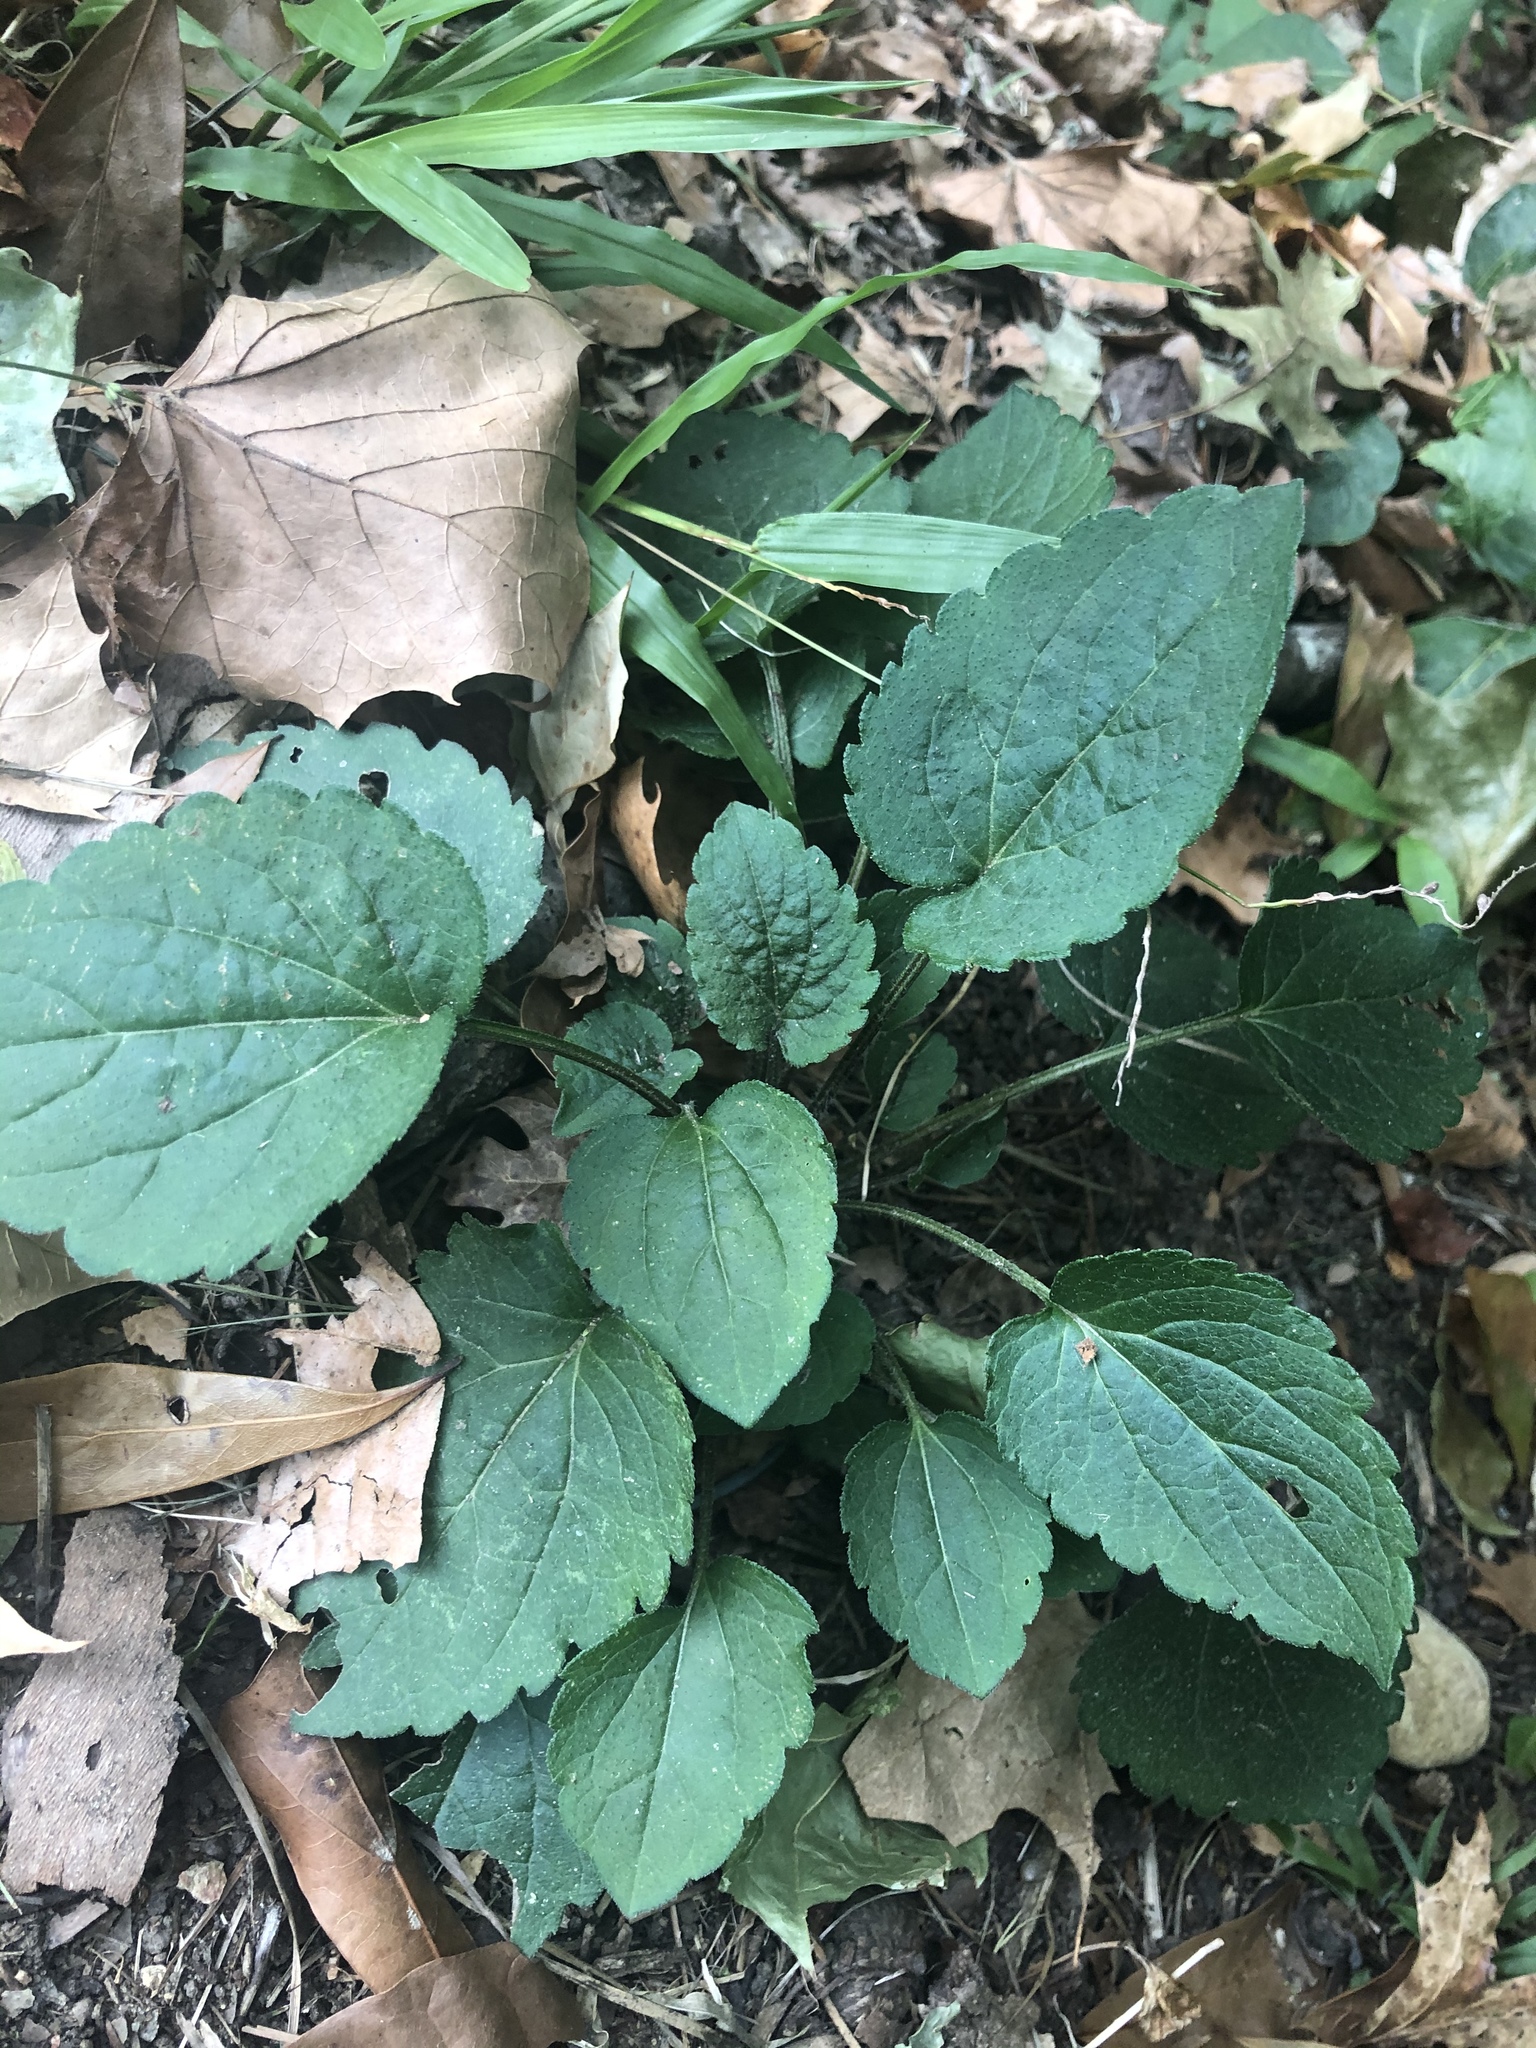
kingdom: Plantae
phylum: Tracheophyta
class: Magnoliopsida
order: Asterales
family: Asteraceae
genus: Rudbeckia
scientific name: Rudbeckia triloba
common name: Thin-leaved coneflower
